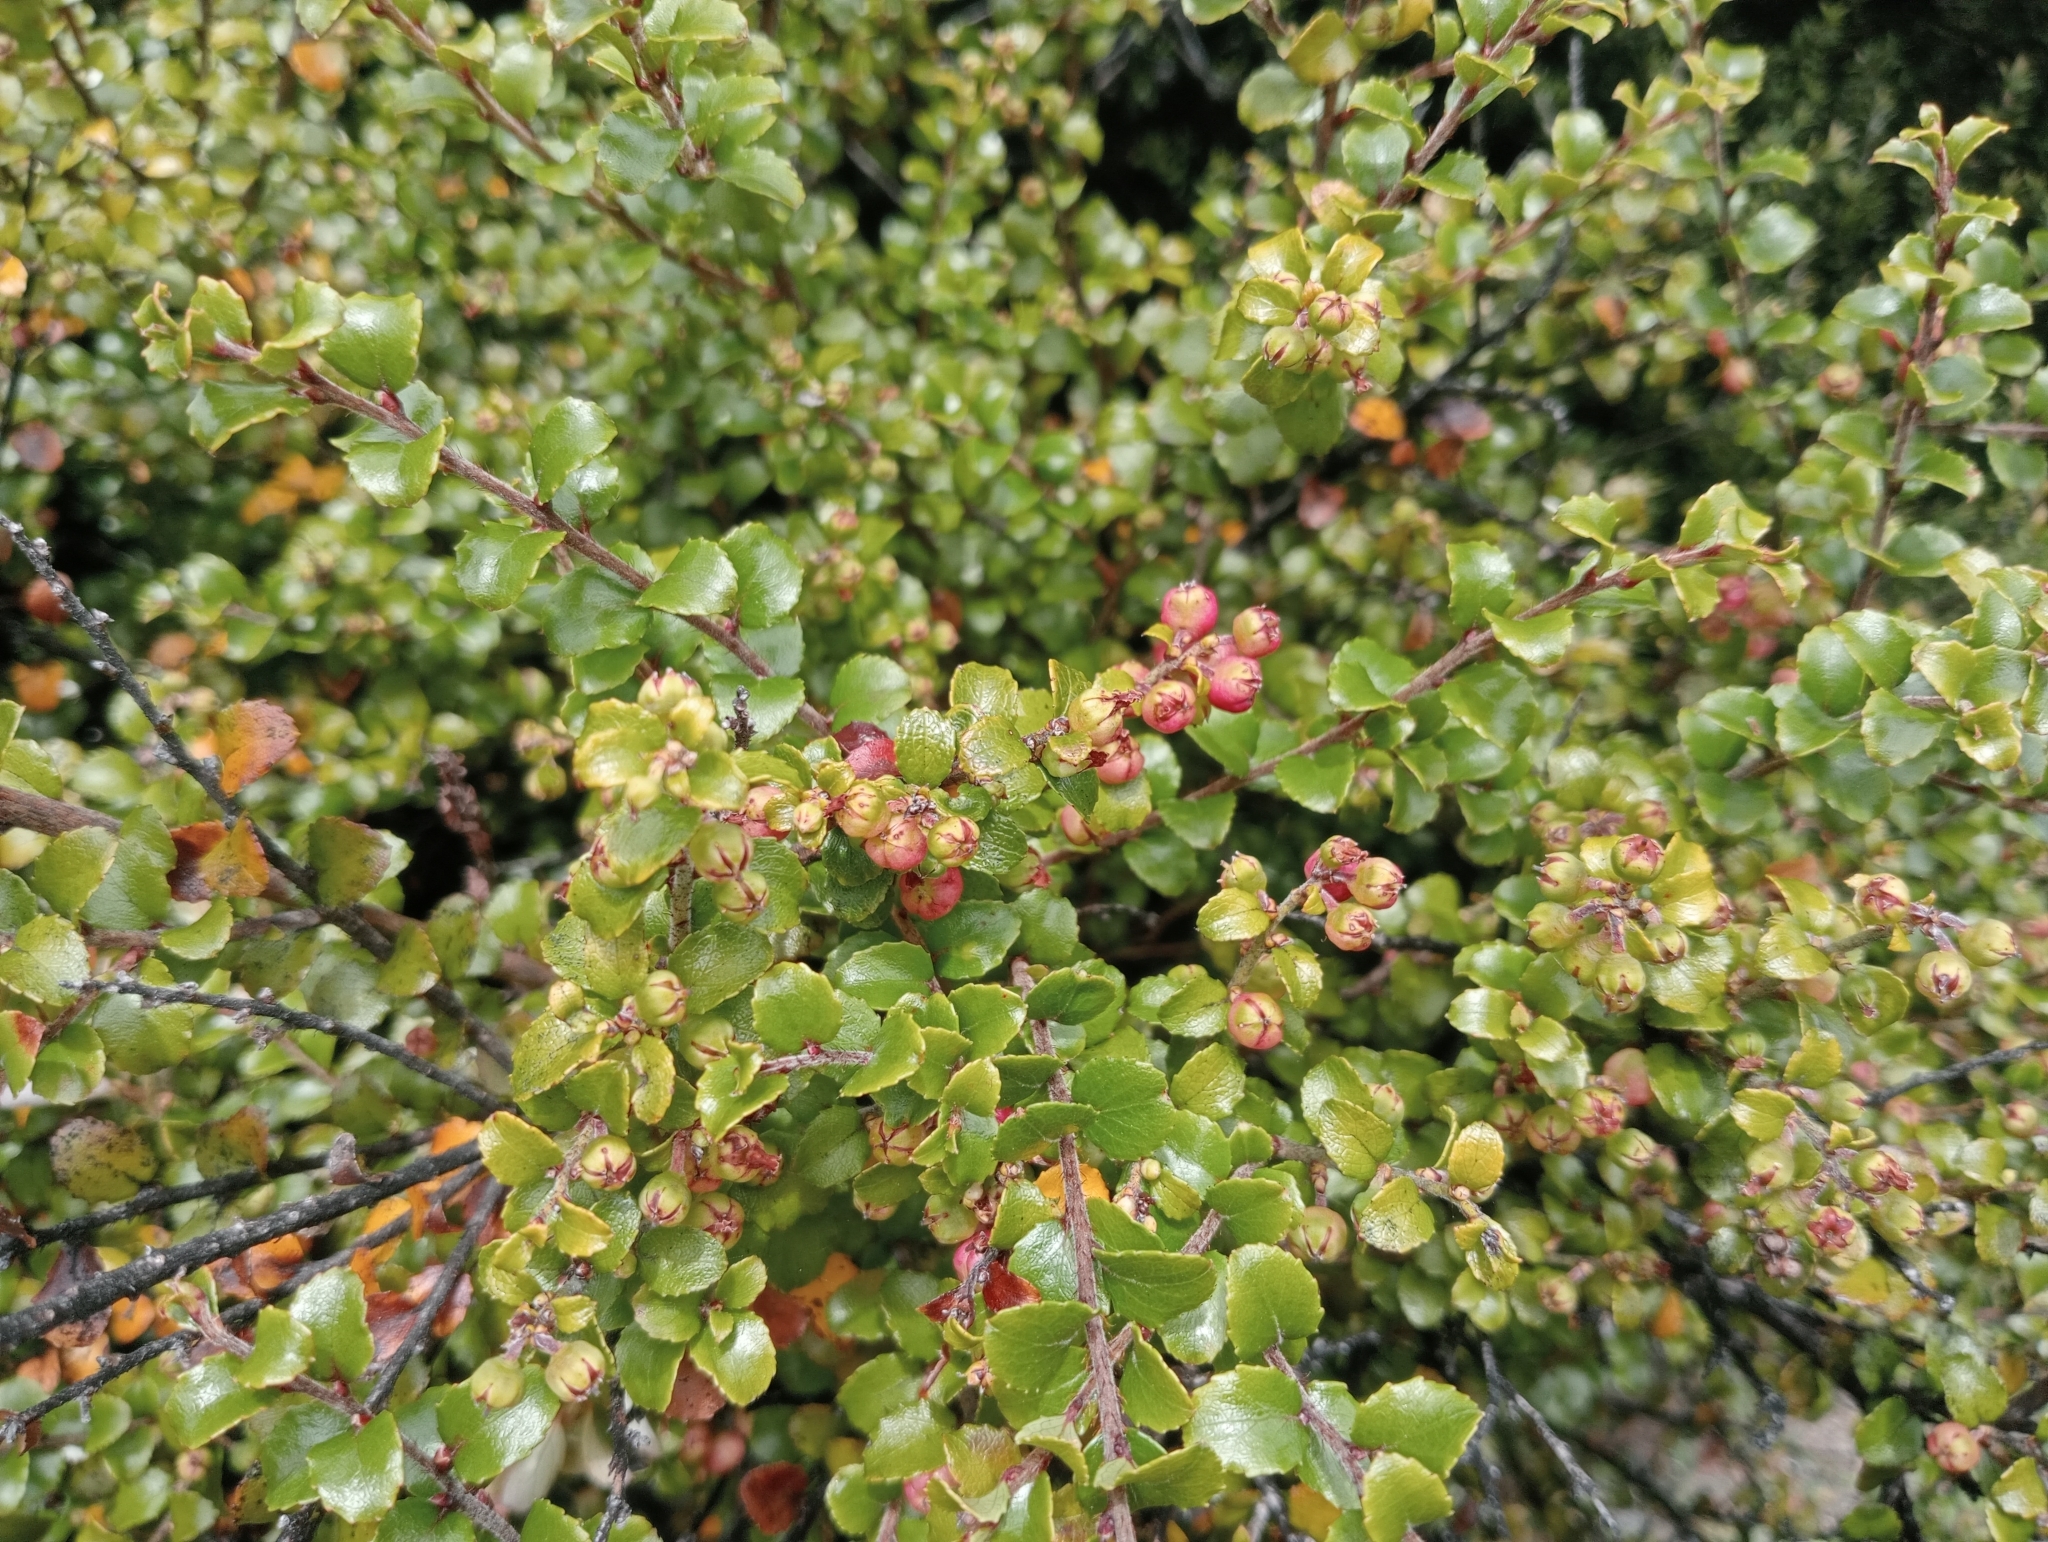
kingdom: Plantae
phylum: Tracheophyta
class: Magnoliopsida
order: Ericales
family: Ericaceae
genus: Gaultheria
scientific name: Gaultheria antipoda
